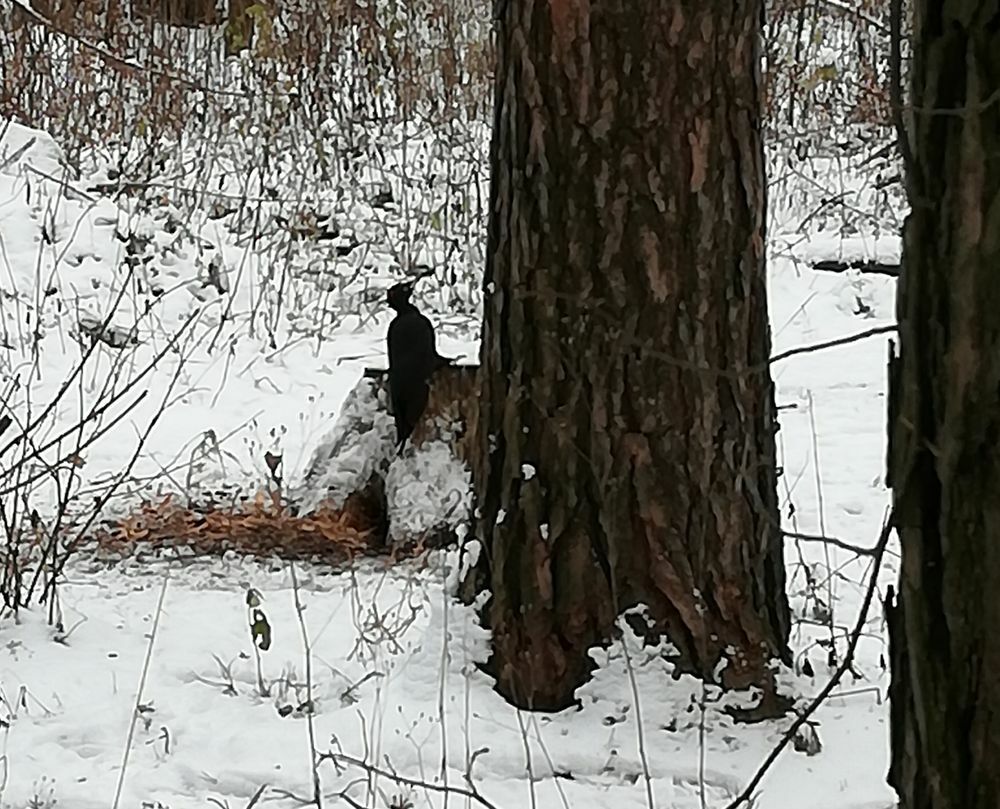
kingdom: Animalia
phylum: Chordata
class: Aves
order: Piciformes
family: Picidae
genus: Dryocopus
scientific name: Dryocopus martius
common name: Black woodpecker
